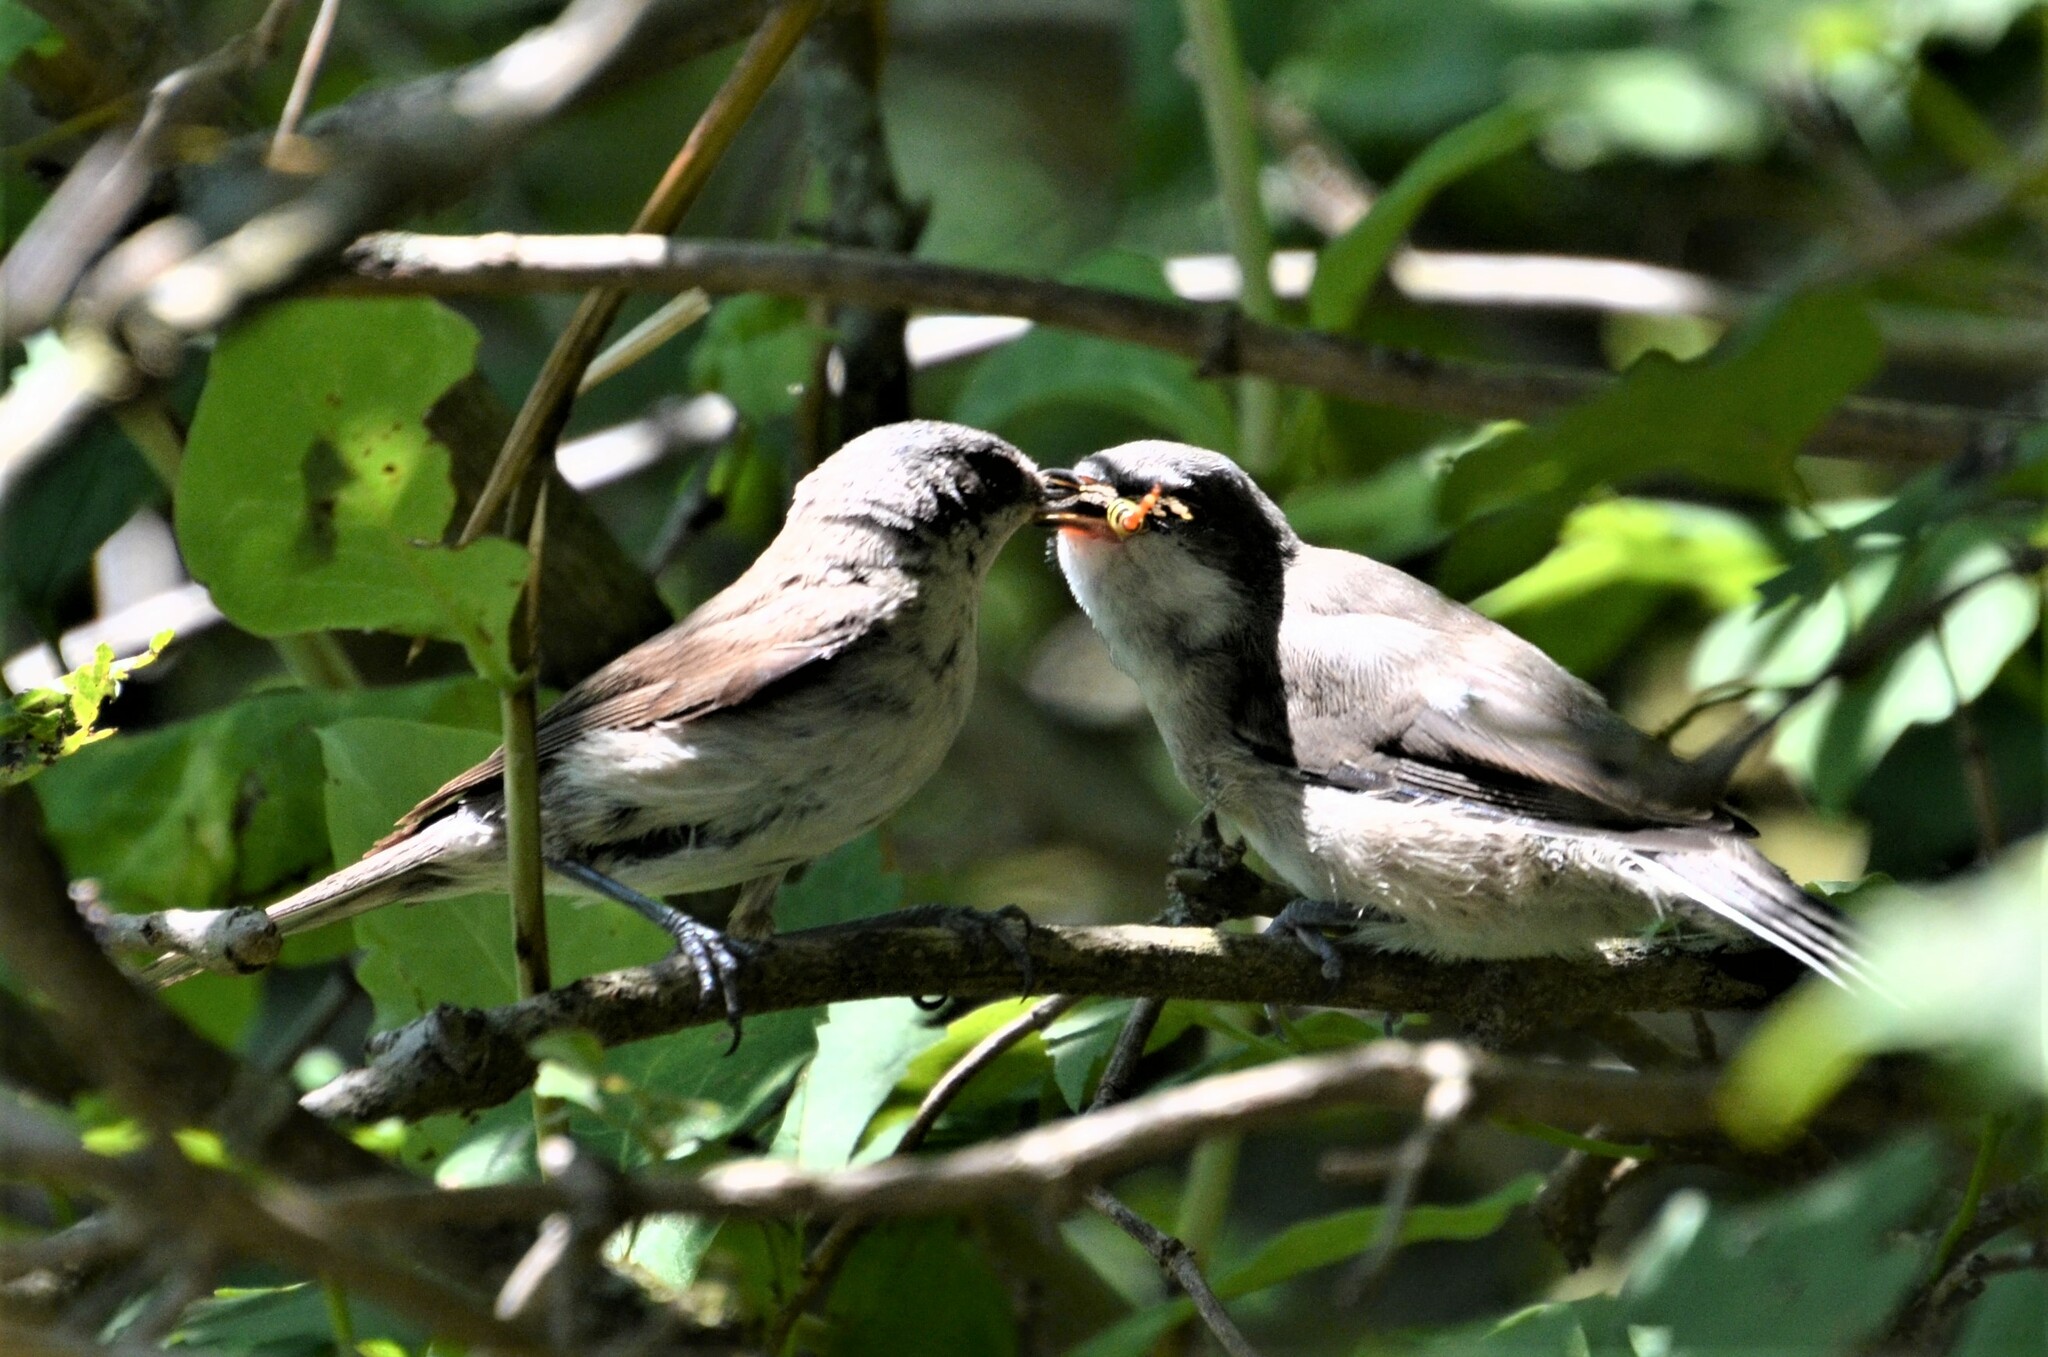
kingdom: Animalia
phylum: Chordata
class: Aves
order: Passeriformes
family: Sylviidae
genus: Sylvia
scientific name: Sylvia curruca
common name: Lesser whitethroat
